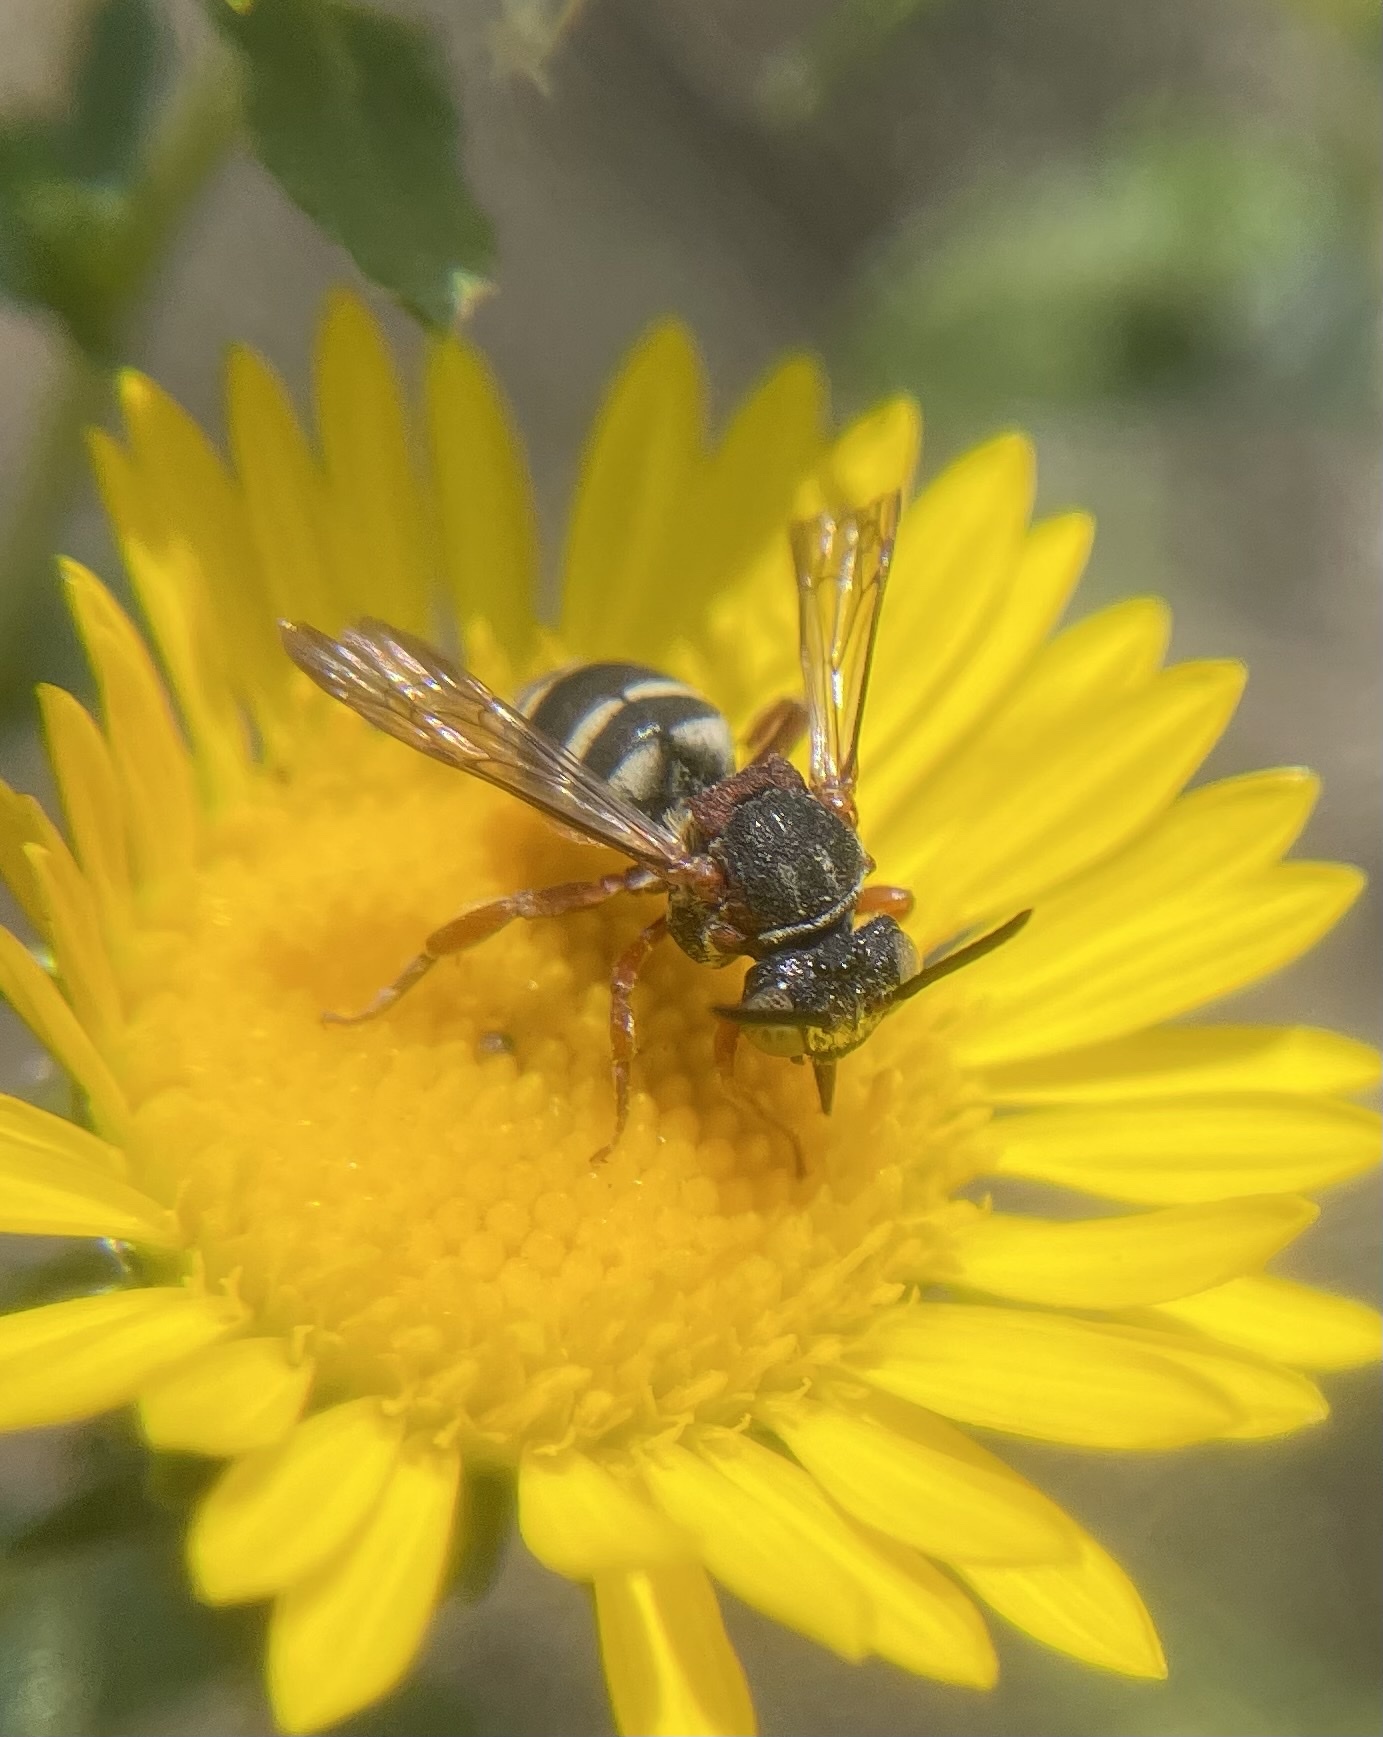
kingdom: Animalia
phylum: Arthropoda
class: Insecta
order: Hymenoptera
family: Apidae
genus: Epeolus
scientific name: Epeolus scutellaris
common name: Notch-backed cellophane-cuckoo bee
